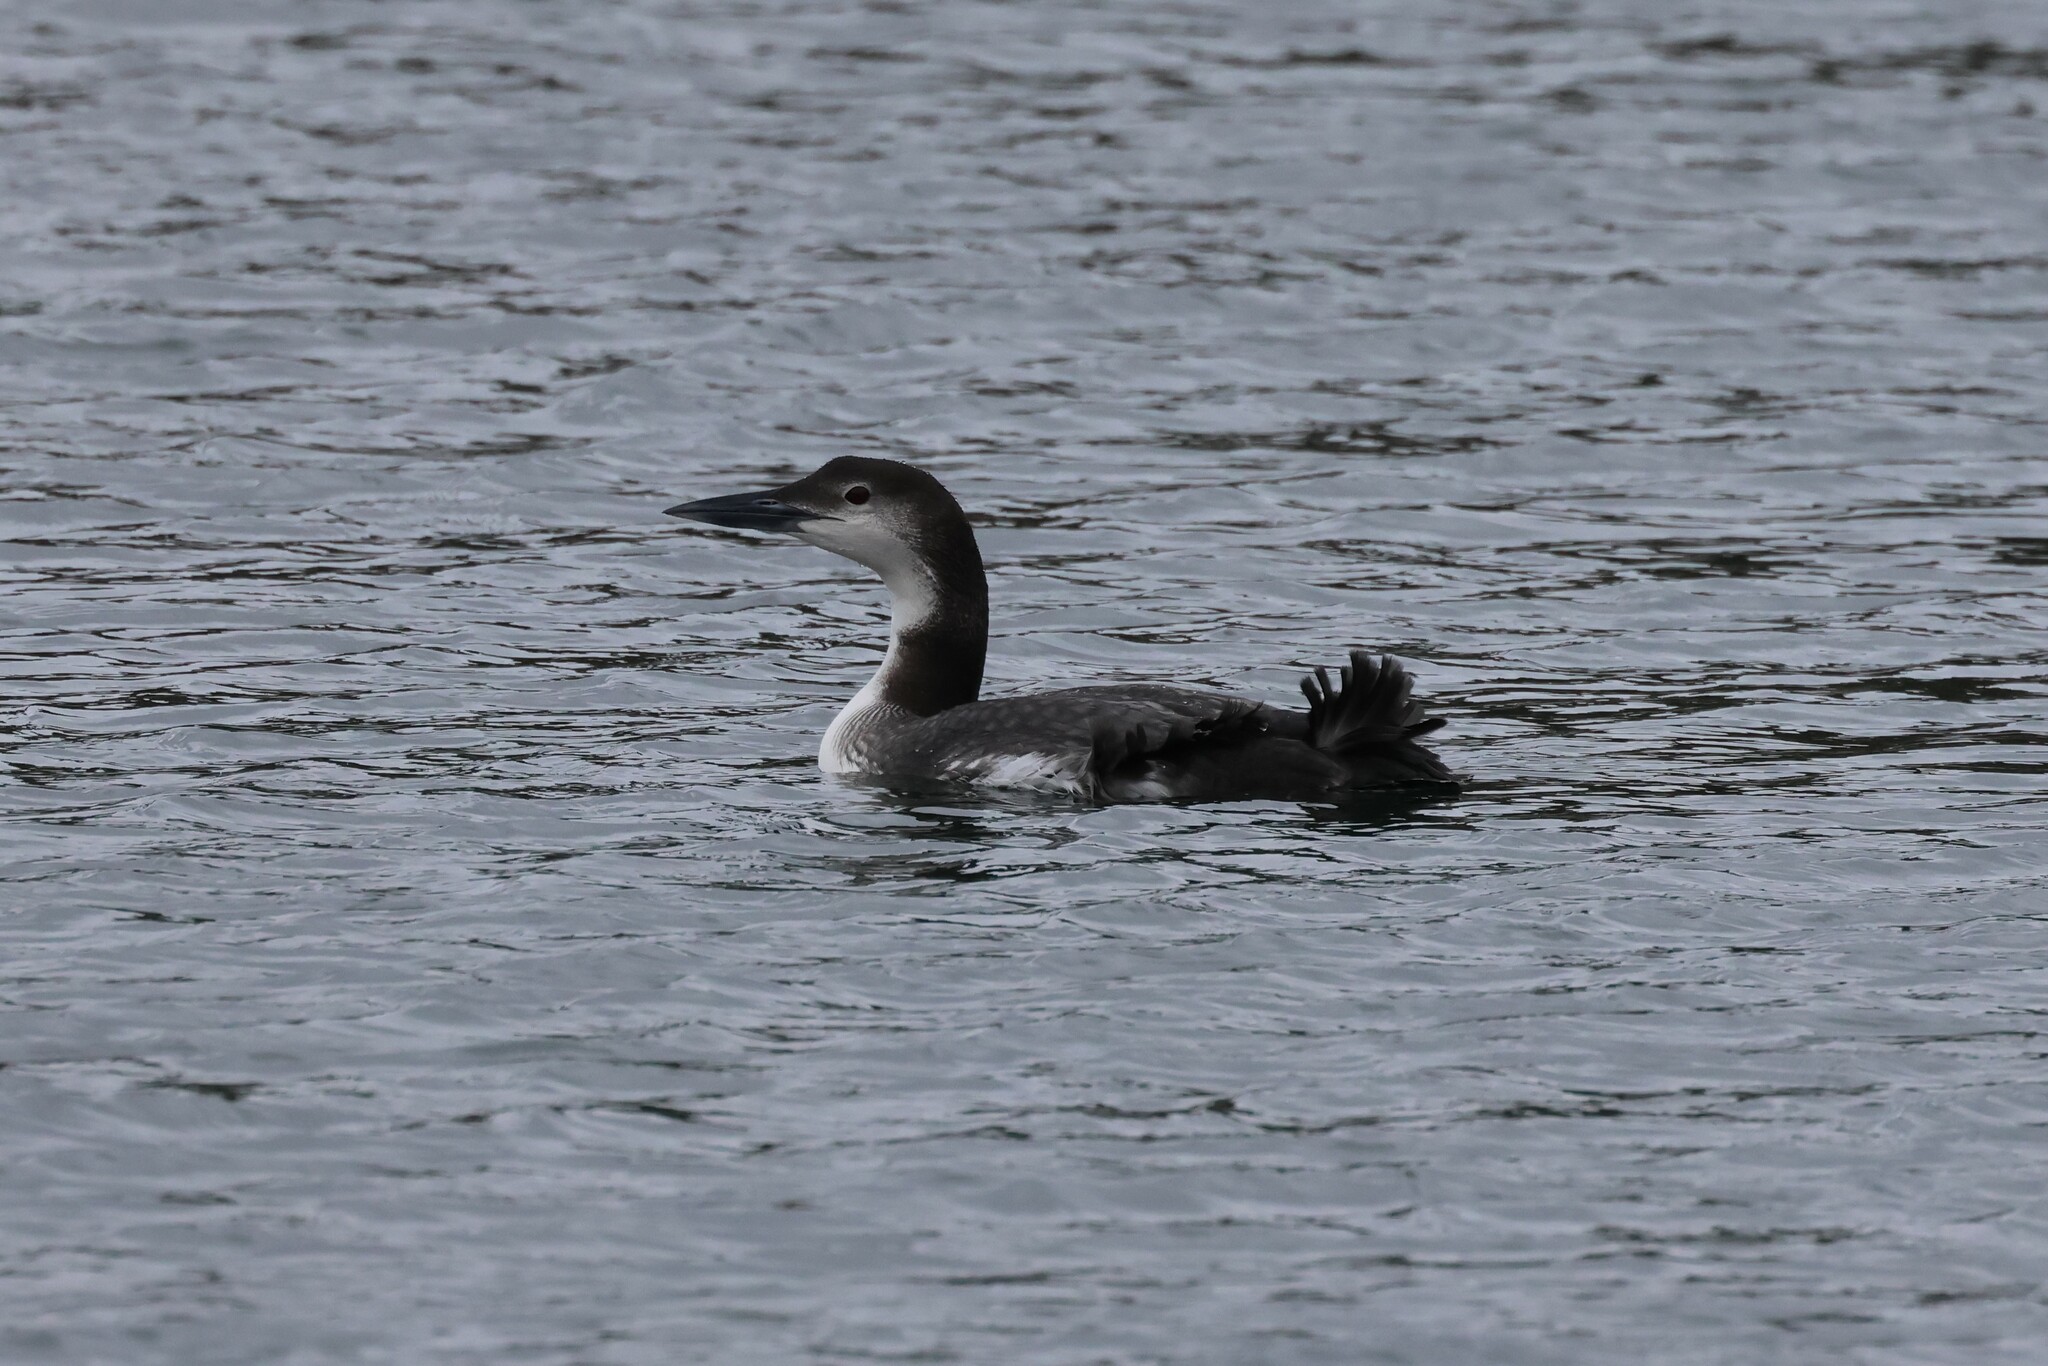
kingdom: Animalia
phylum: Chordata
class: Aves
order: Gaviiformes
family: Gaviidae
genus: Gavia
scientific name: Gavia immer
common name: Common loon
